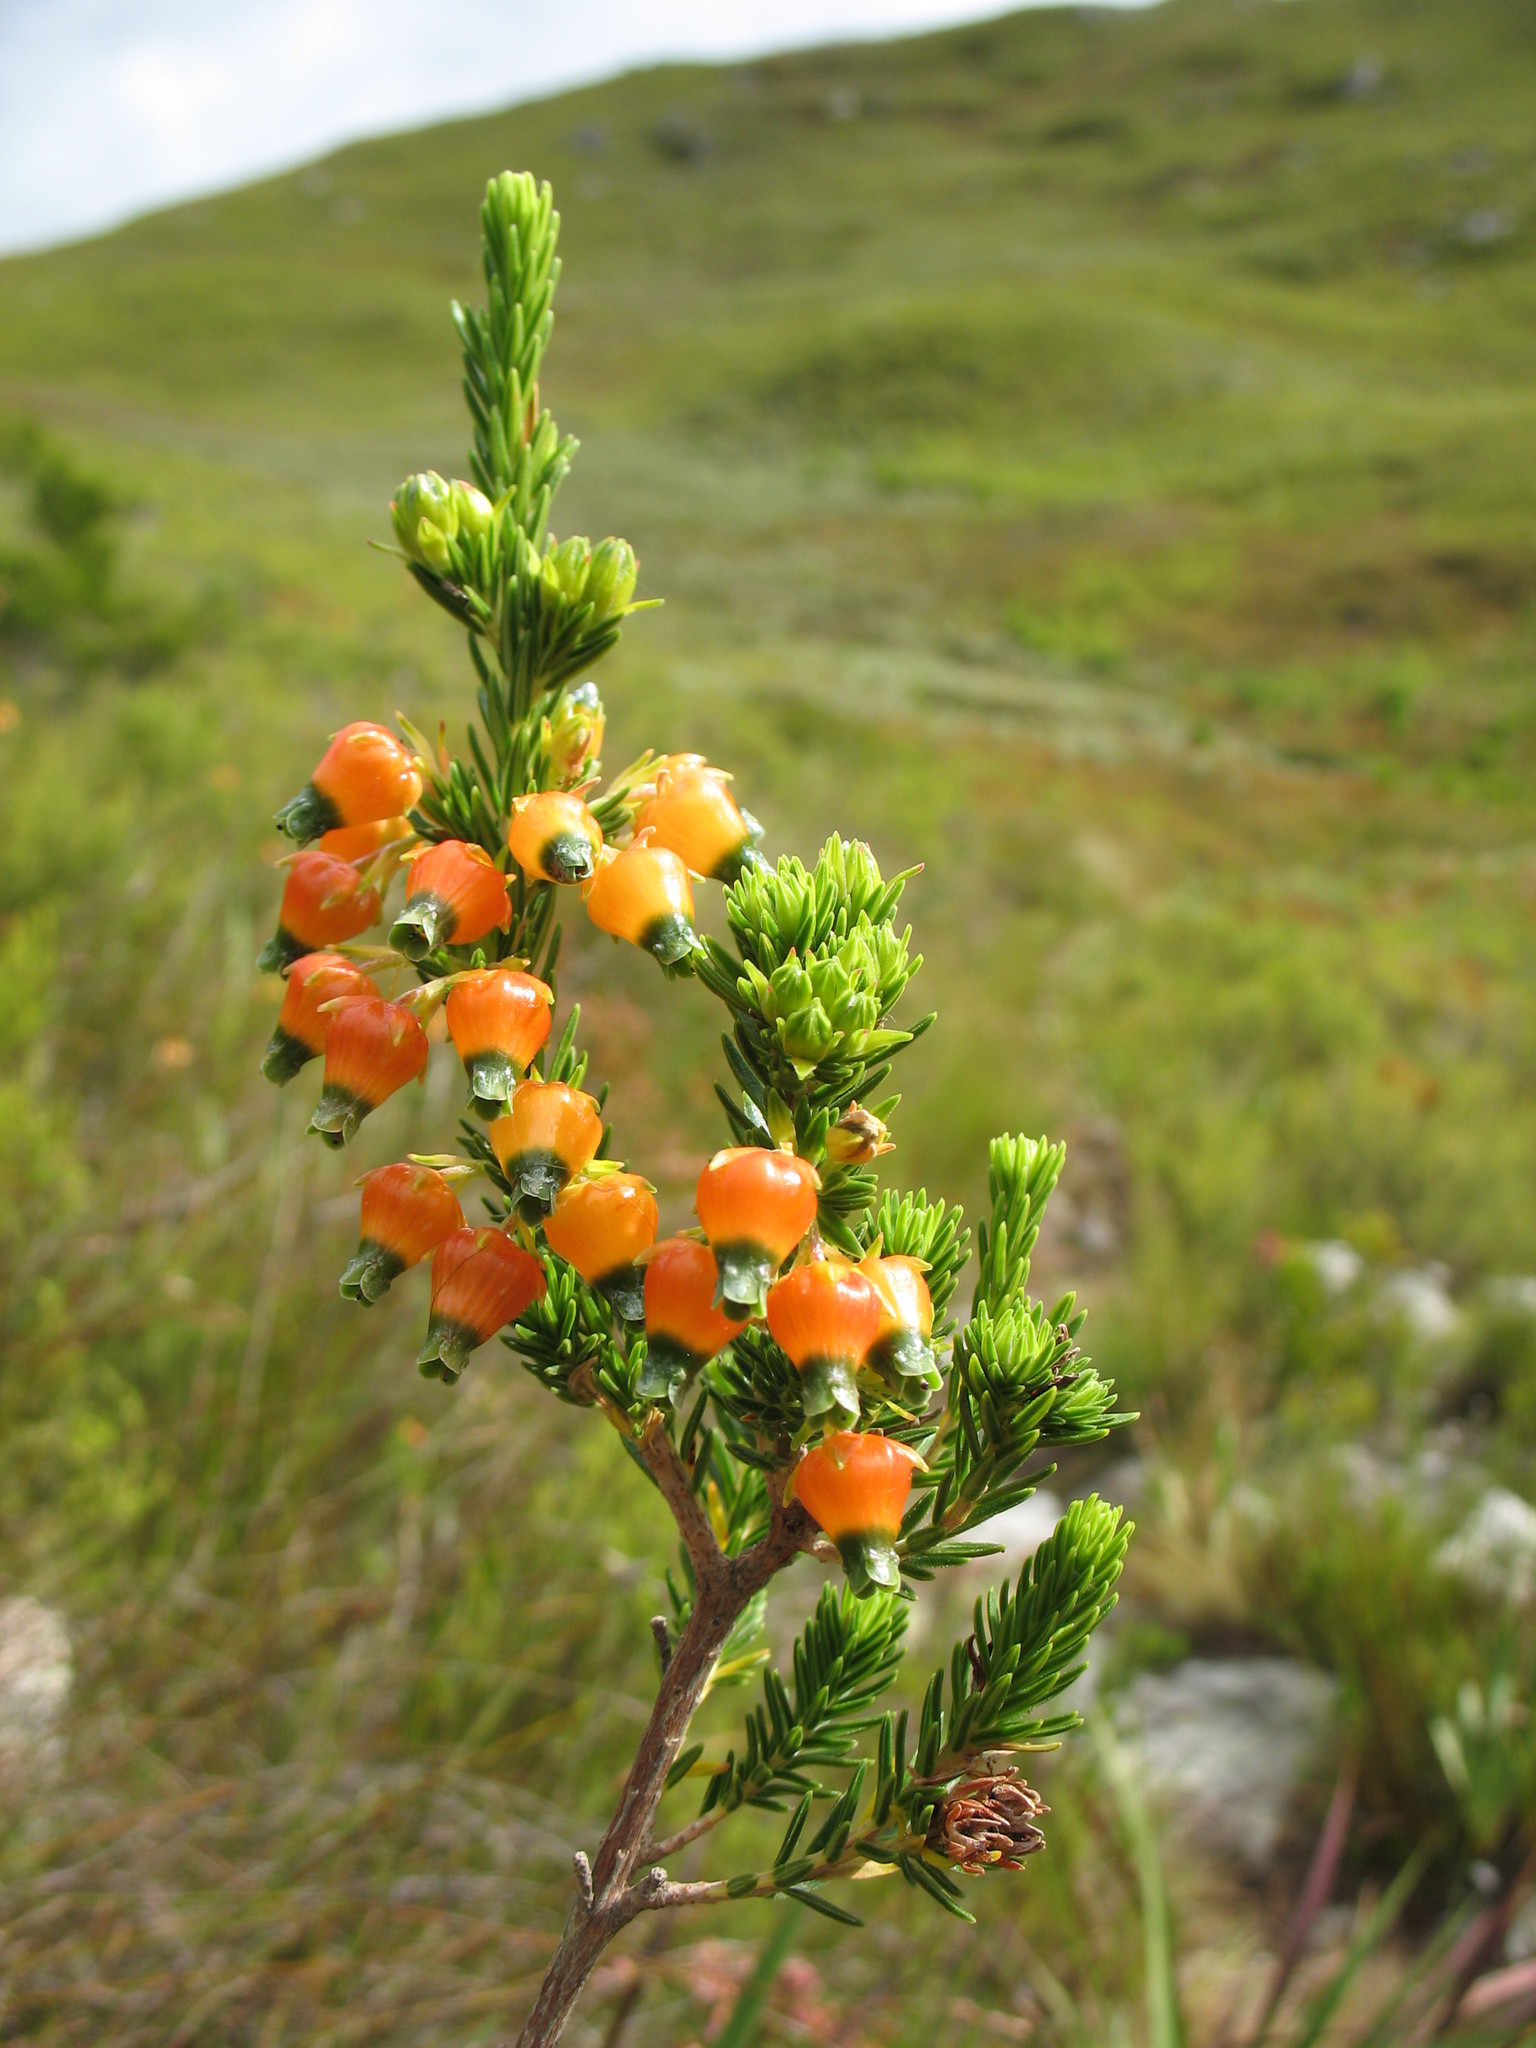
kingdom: Plantae
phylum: Tracheophyta
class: Magnoliopsida
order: Ericales
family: Ericaceae
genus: Erica
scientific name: Erica blenna
